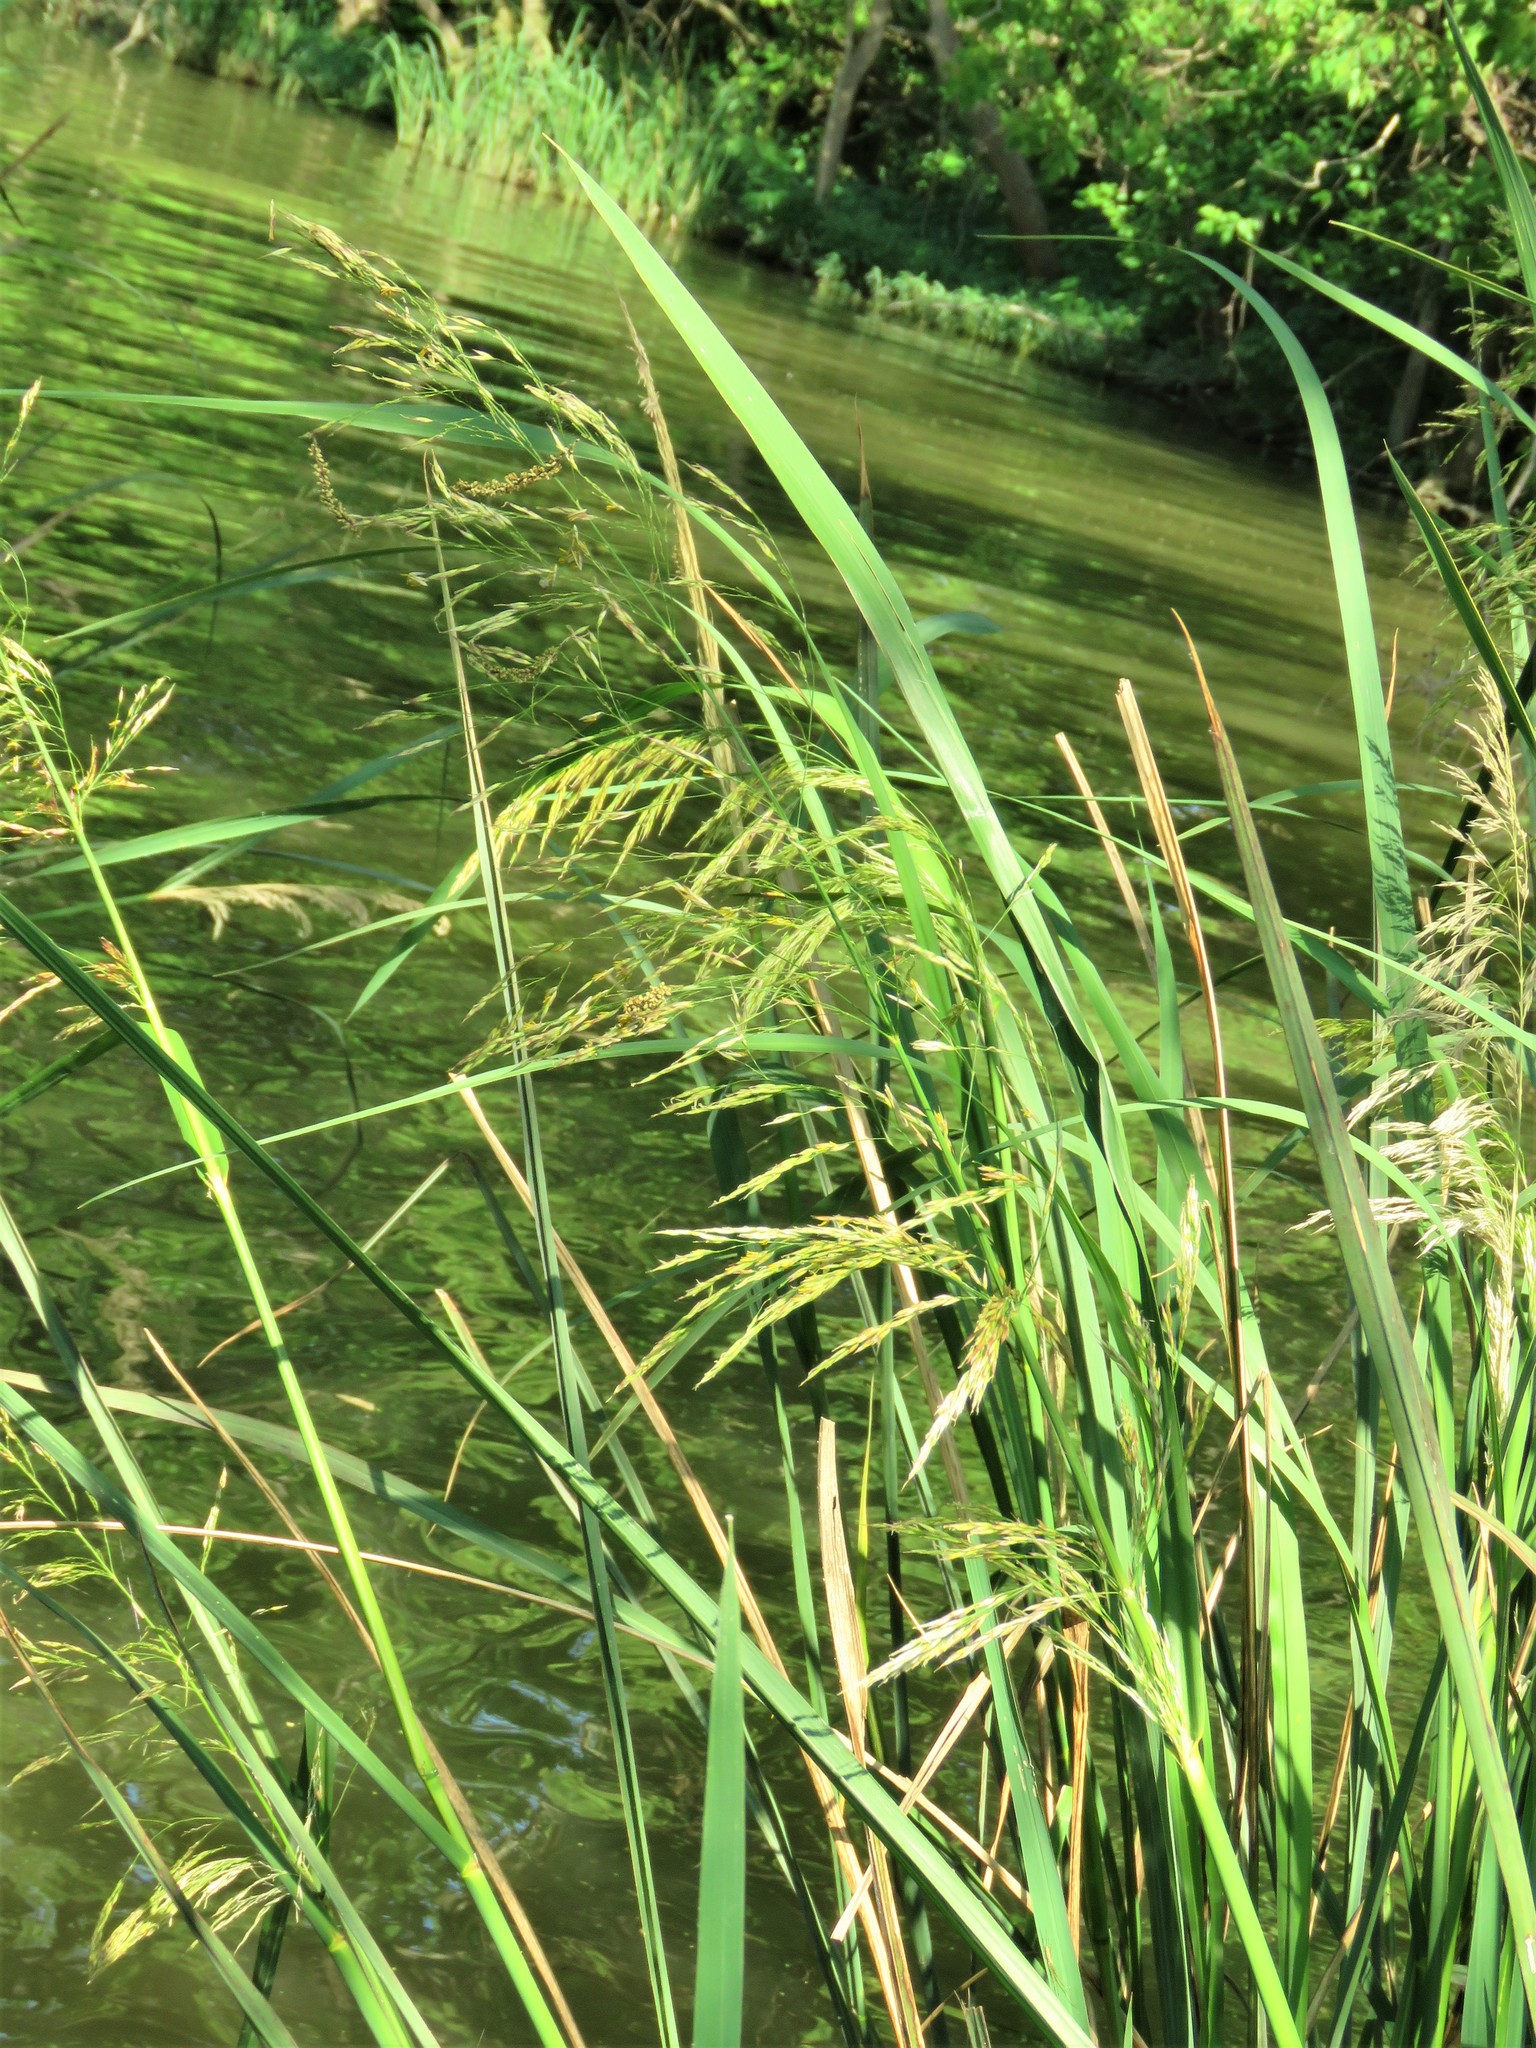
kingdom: Plantae
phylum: Tracheophyta
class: Liliopsida
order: Poales
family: Poaceae
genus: Zizaniopsis
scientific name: Zizaniopsis miliacea
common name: Giant-cutgrass
